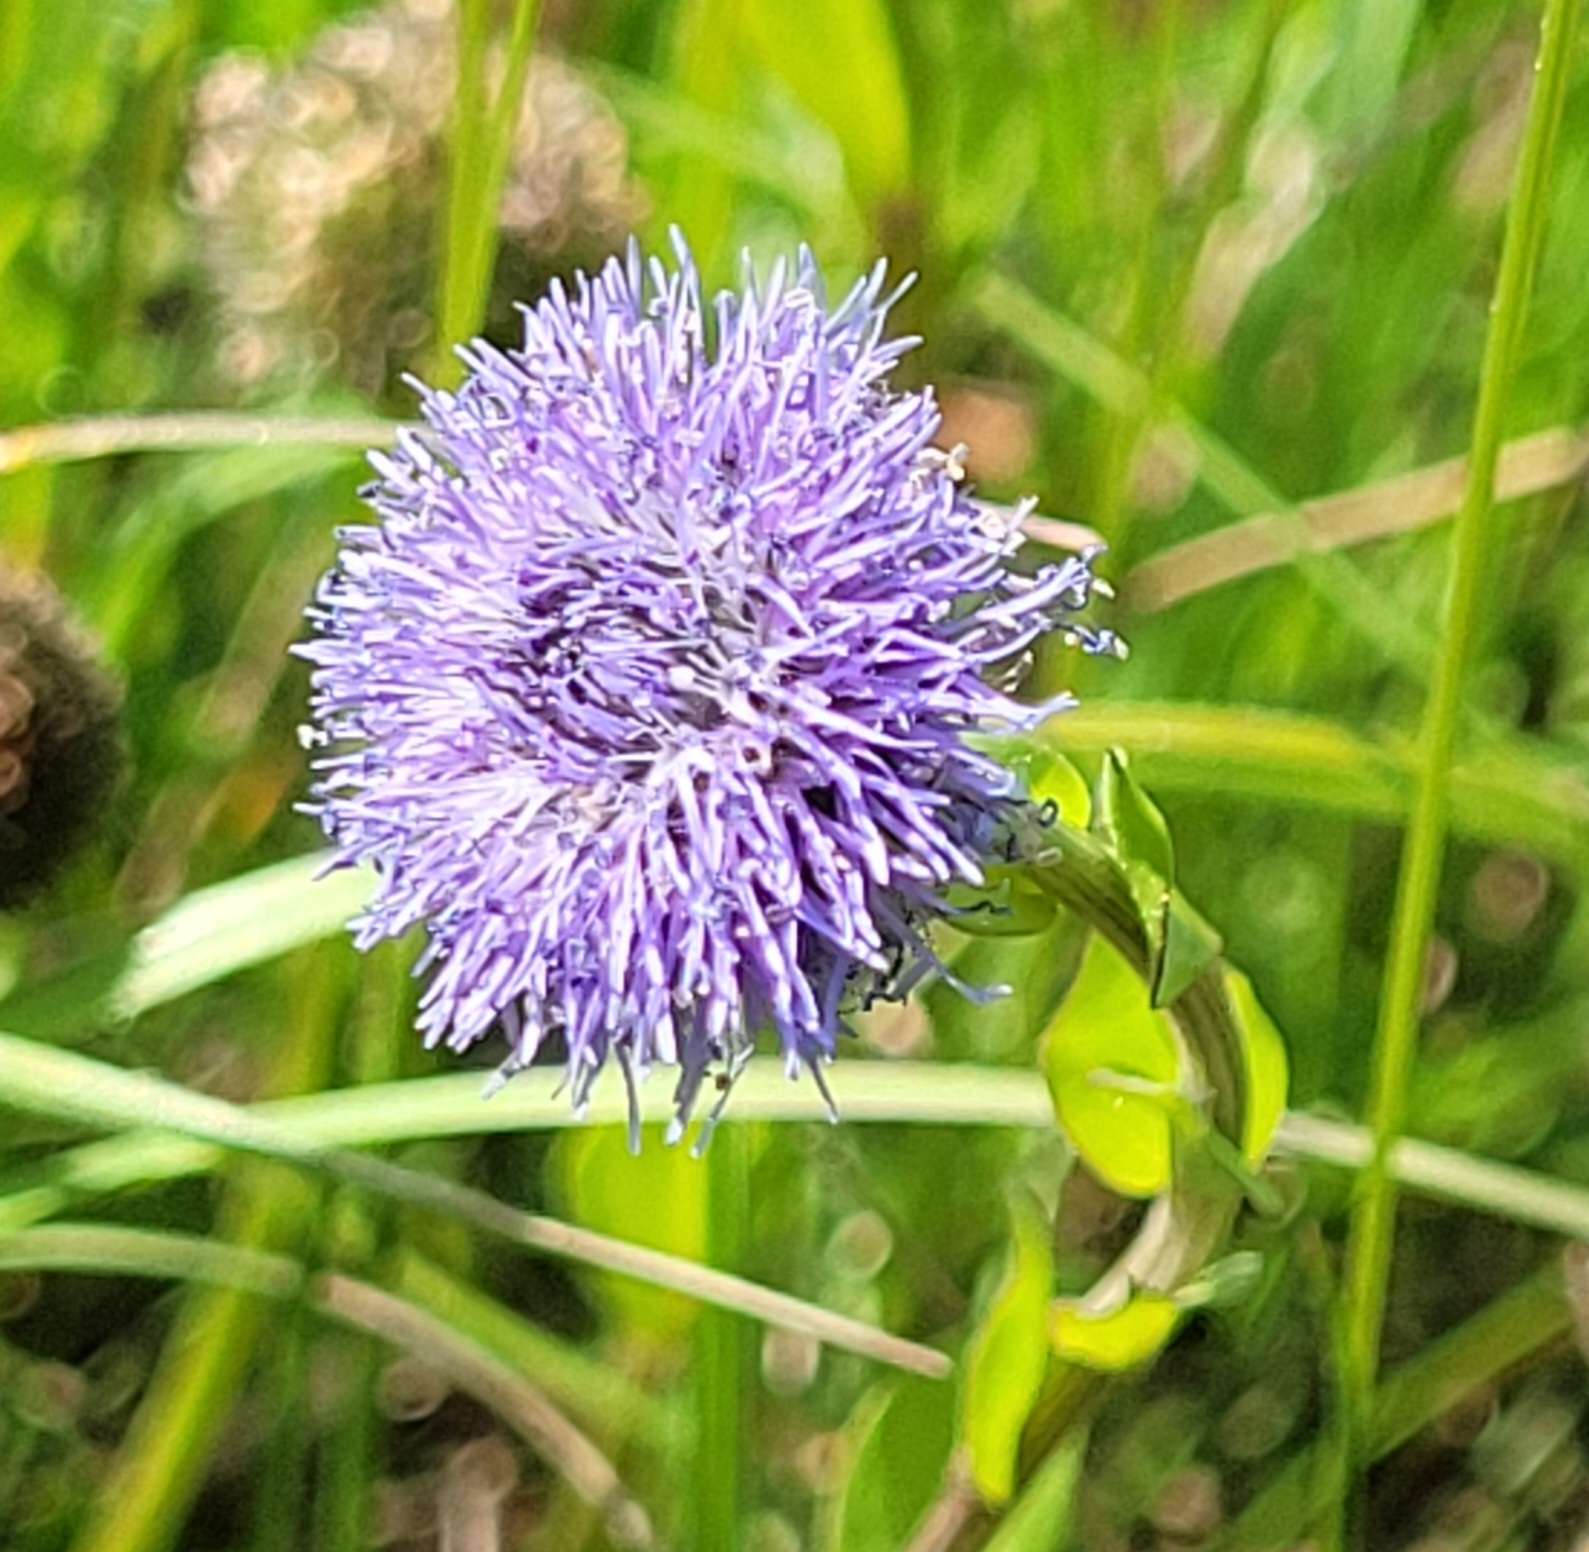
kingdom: Plantae
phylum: Tracheophyta
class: Magnoliopsida
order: Lamiales
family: Plantaginaceae
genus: Globularia
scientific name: Globularia bisnagarica
